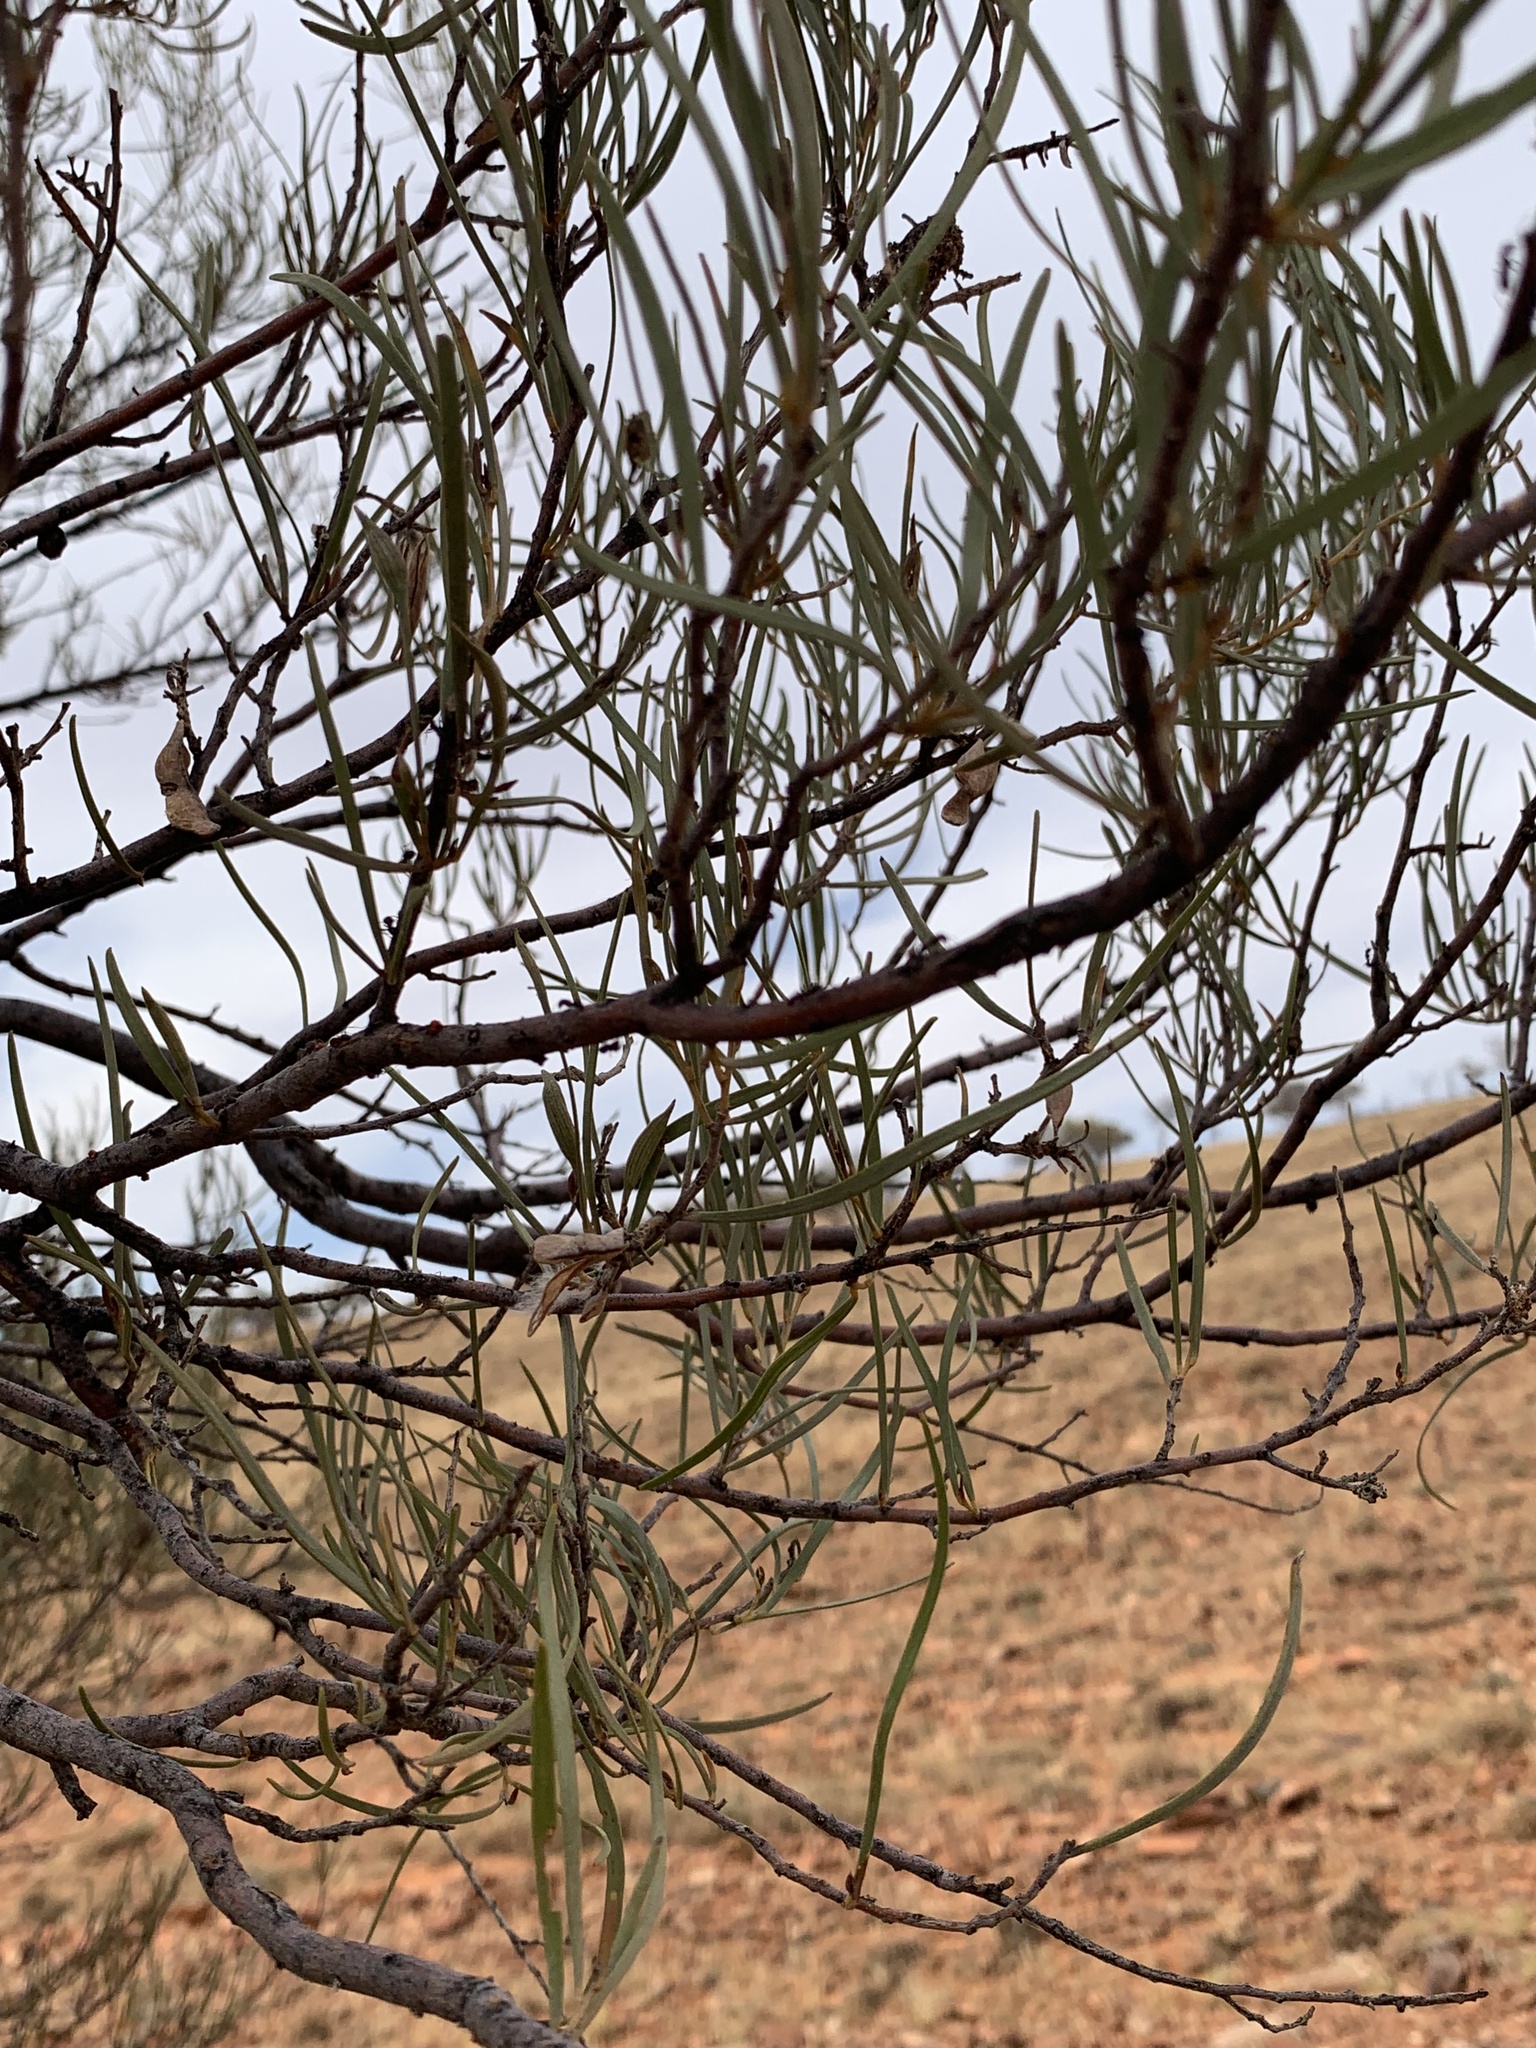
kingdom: Plantae
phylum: Tracheophyta
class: Magnoliopsida
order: Fabales
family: Fabaceae
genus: Acacia
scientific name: Acacia aneura
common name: Mulga
